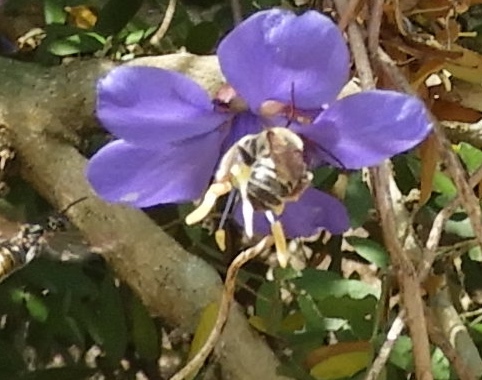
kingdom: Animalia
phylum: Arthropoda
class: Insecta
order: Hymenoptera
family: Apidae
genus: Apidae
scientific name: Apidae
